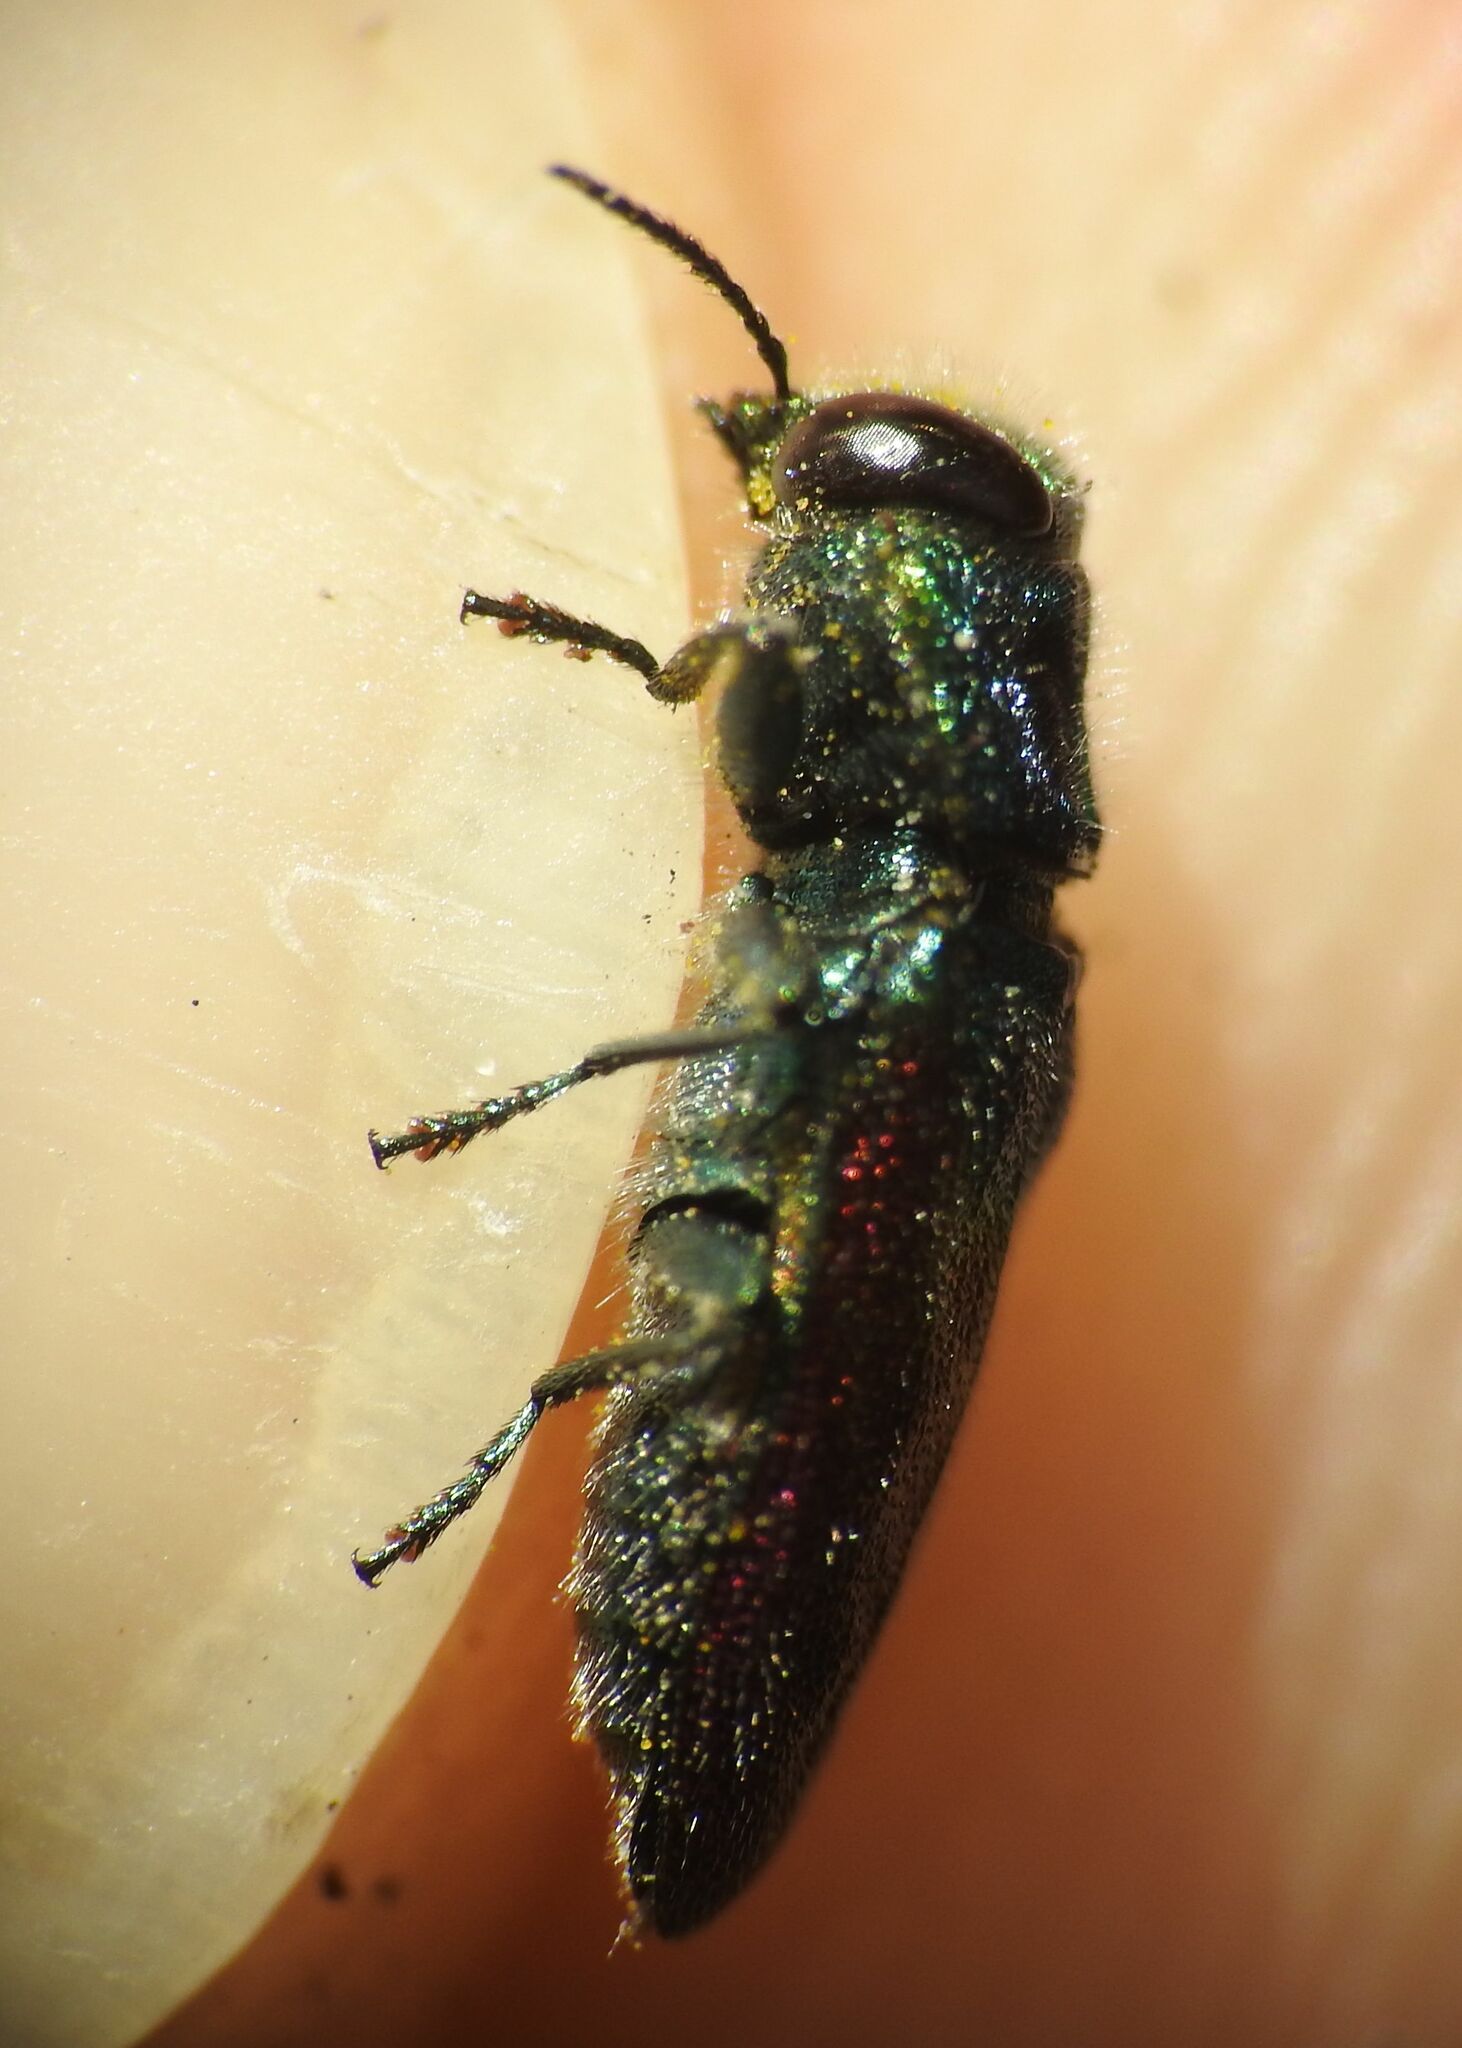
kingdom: Animalia
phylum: Arthropoda
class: Insecta
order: Coleoptera
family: Buprestidae
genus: Anthaxia
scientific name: Anthaxia salicis
